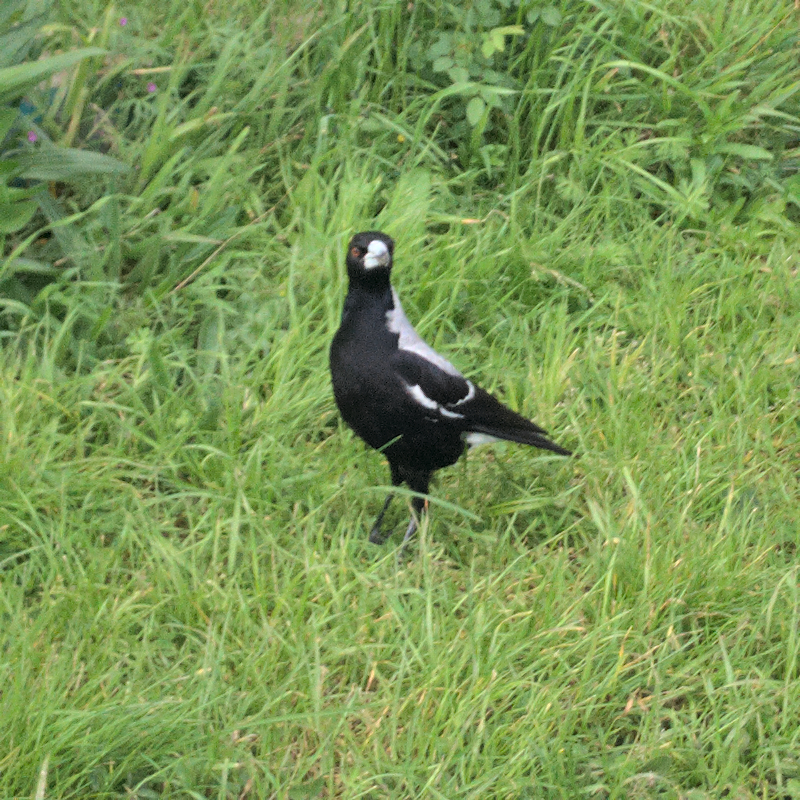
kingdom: Animalia
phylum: Chordata
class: Aves
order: Passeriformes
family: Cracticidae
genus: Gymnorhina
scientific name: Gymnorhina tibicen
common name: Australian magpie
